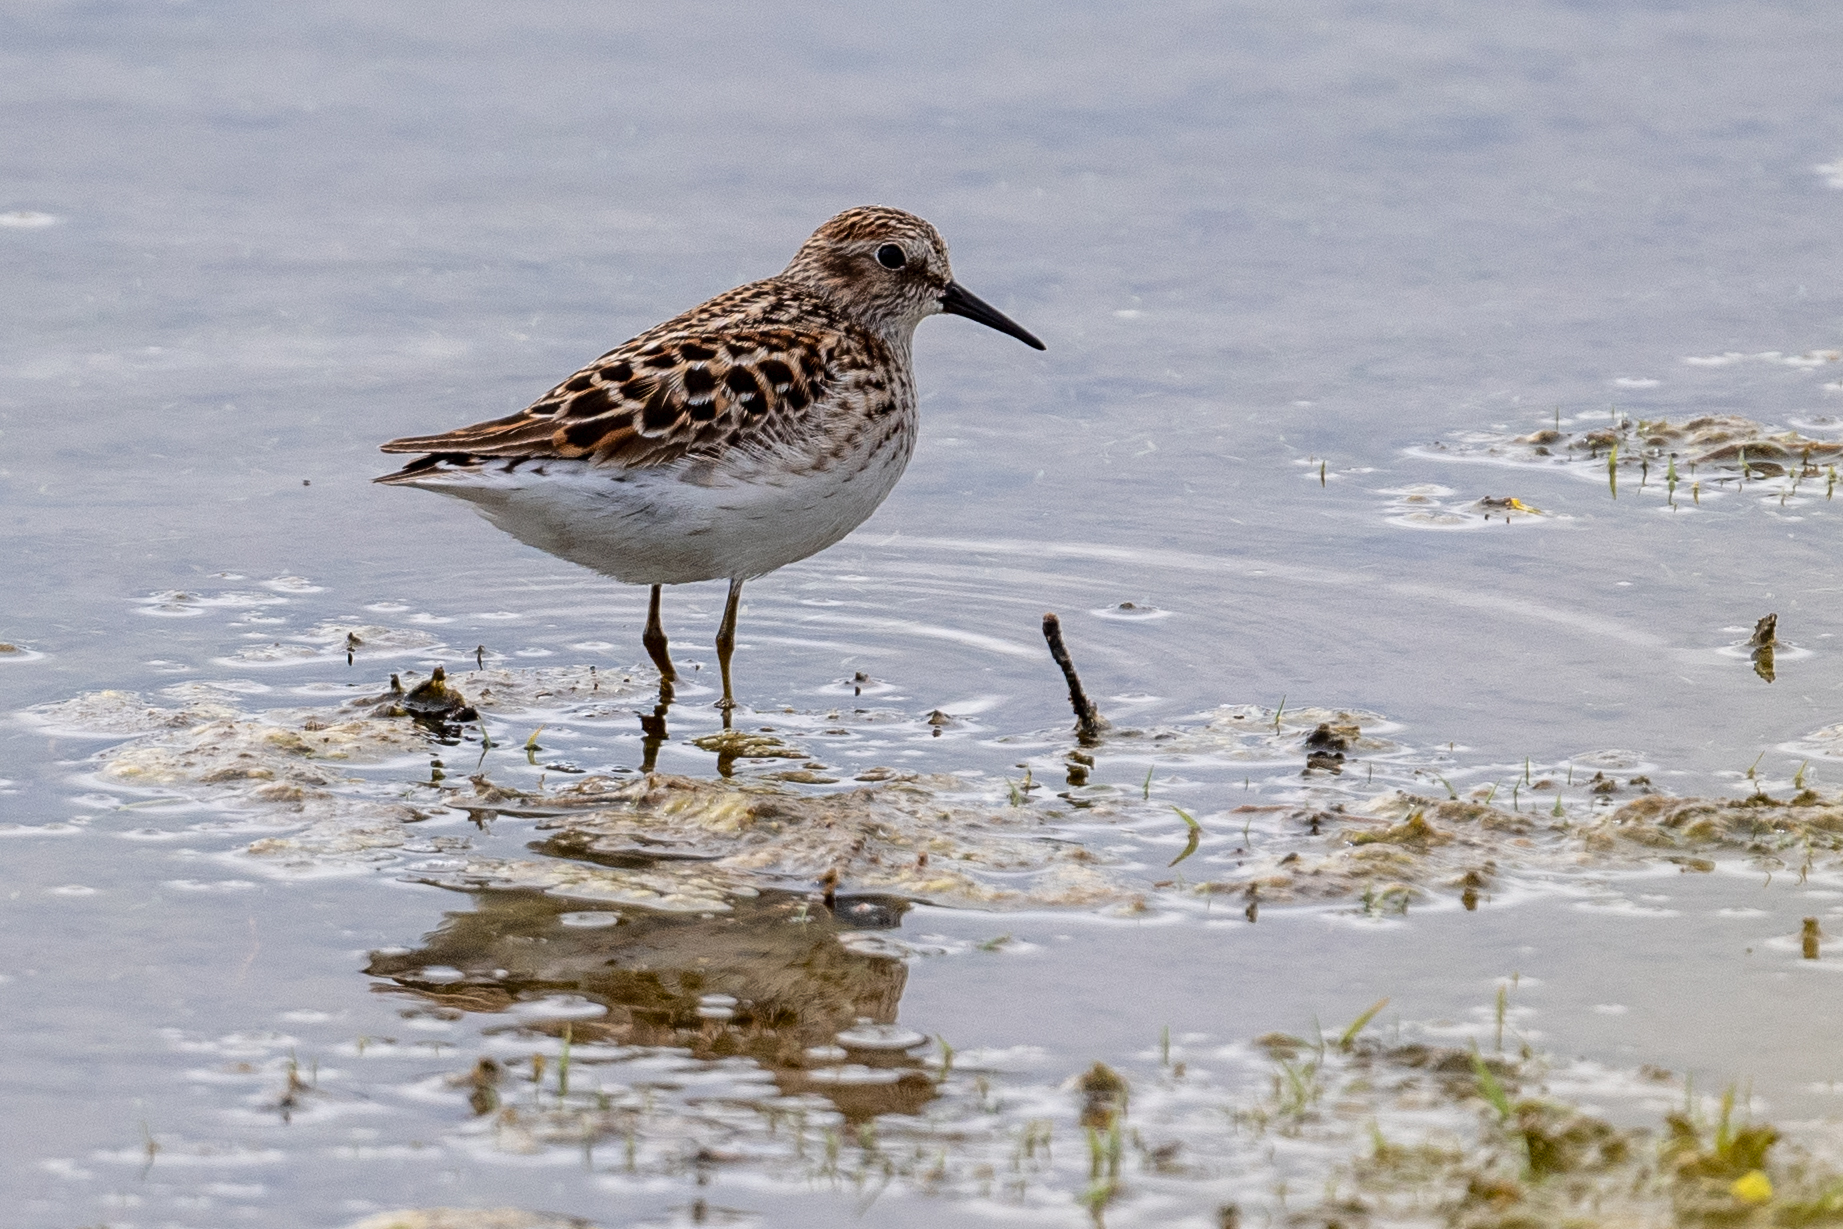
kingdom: Animalia
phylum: Chordata
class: Aves
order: Charadriiformes
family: Scolopacidae
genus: Calidris
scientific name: Calidris minutilla
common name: Least sandpiper
